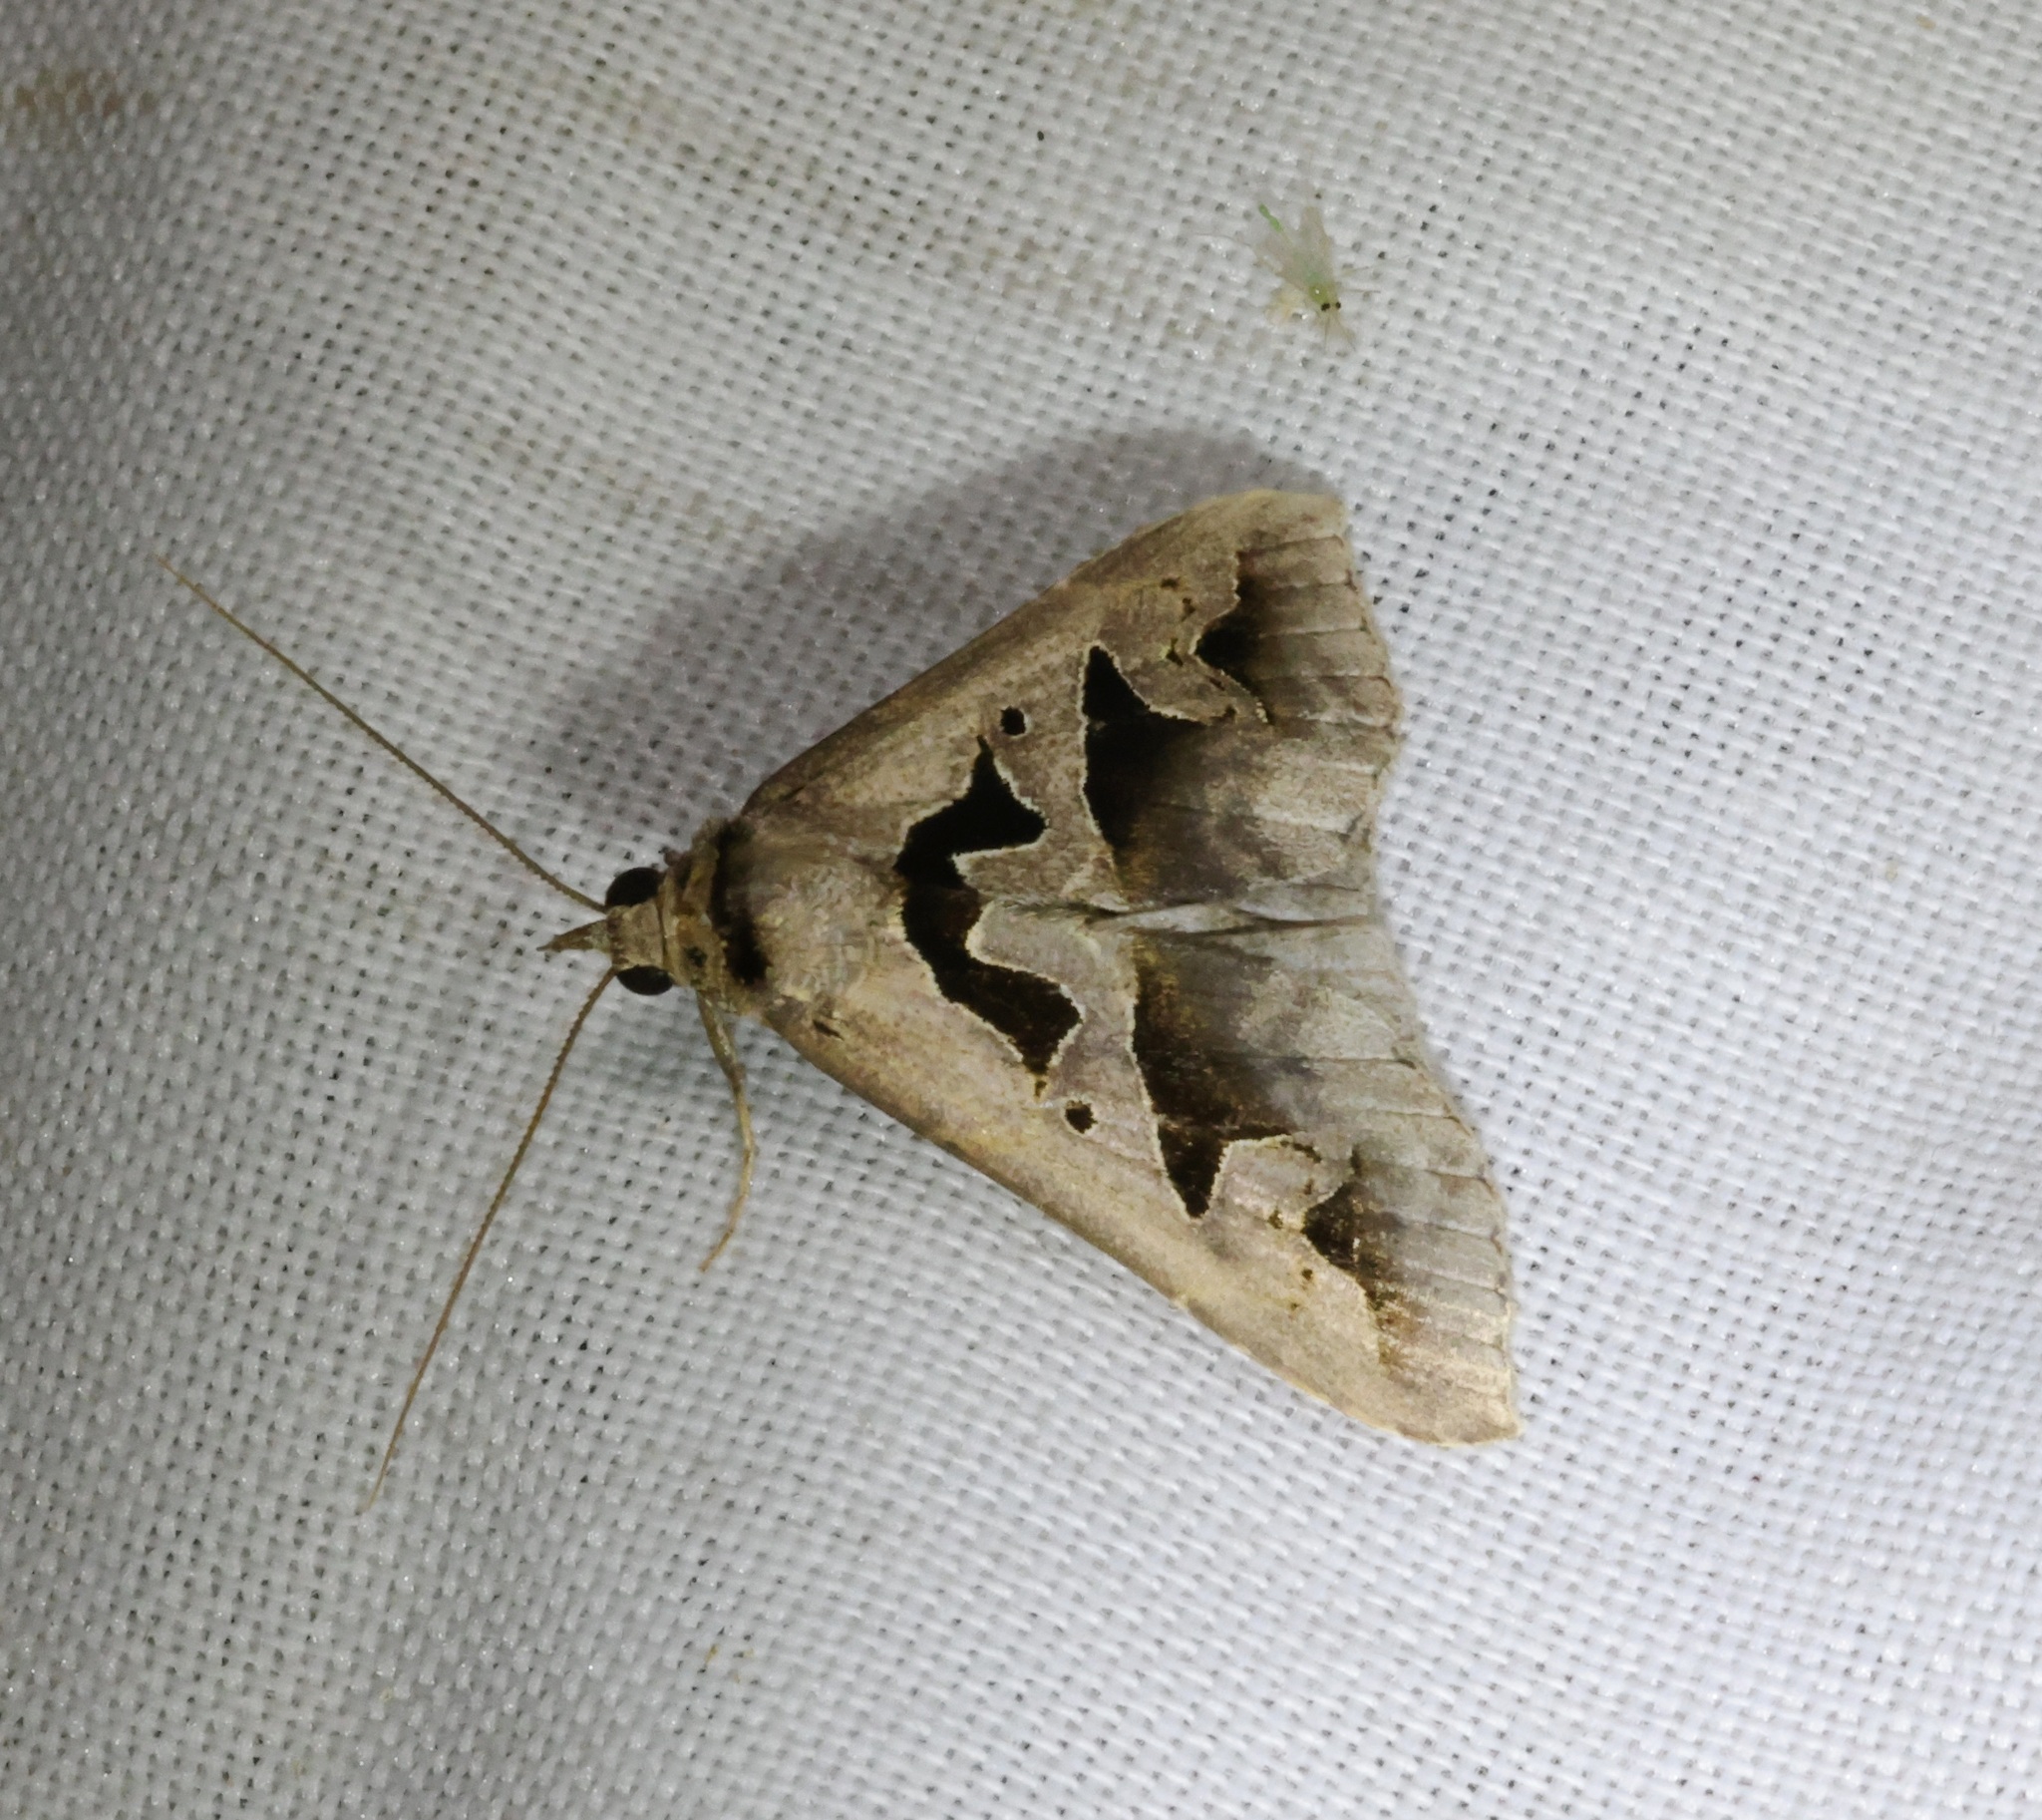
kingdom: Animalia
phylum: Arthropoda
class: Insecta
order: Lepidoptera
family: Erebidae
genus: Tephriopis
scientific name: Tephriopis divulsa
